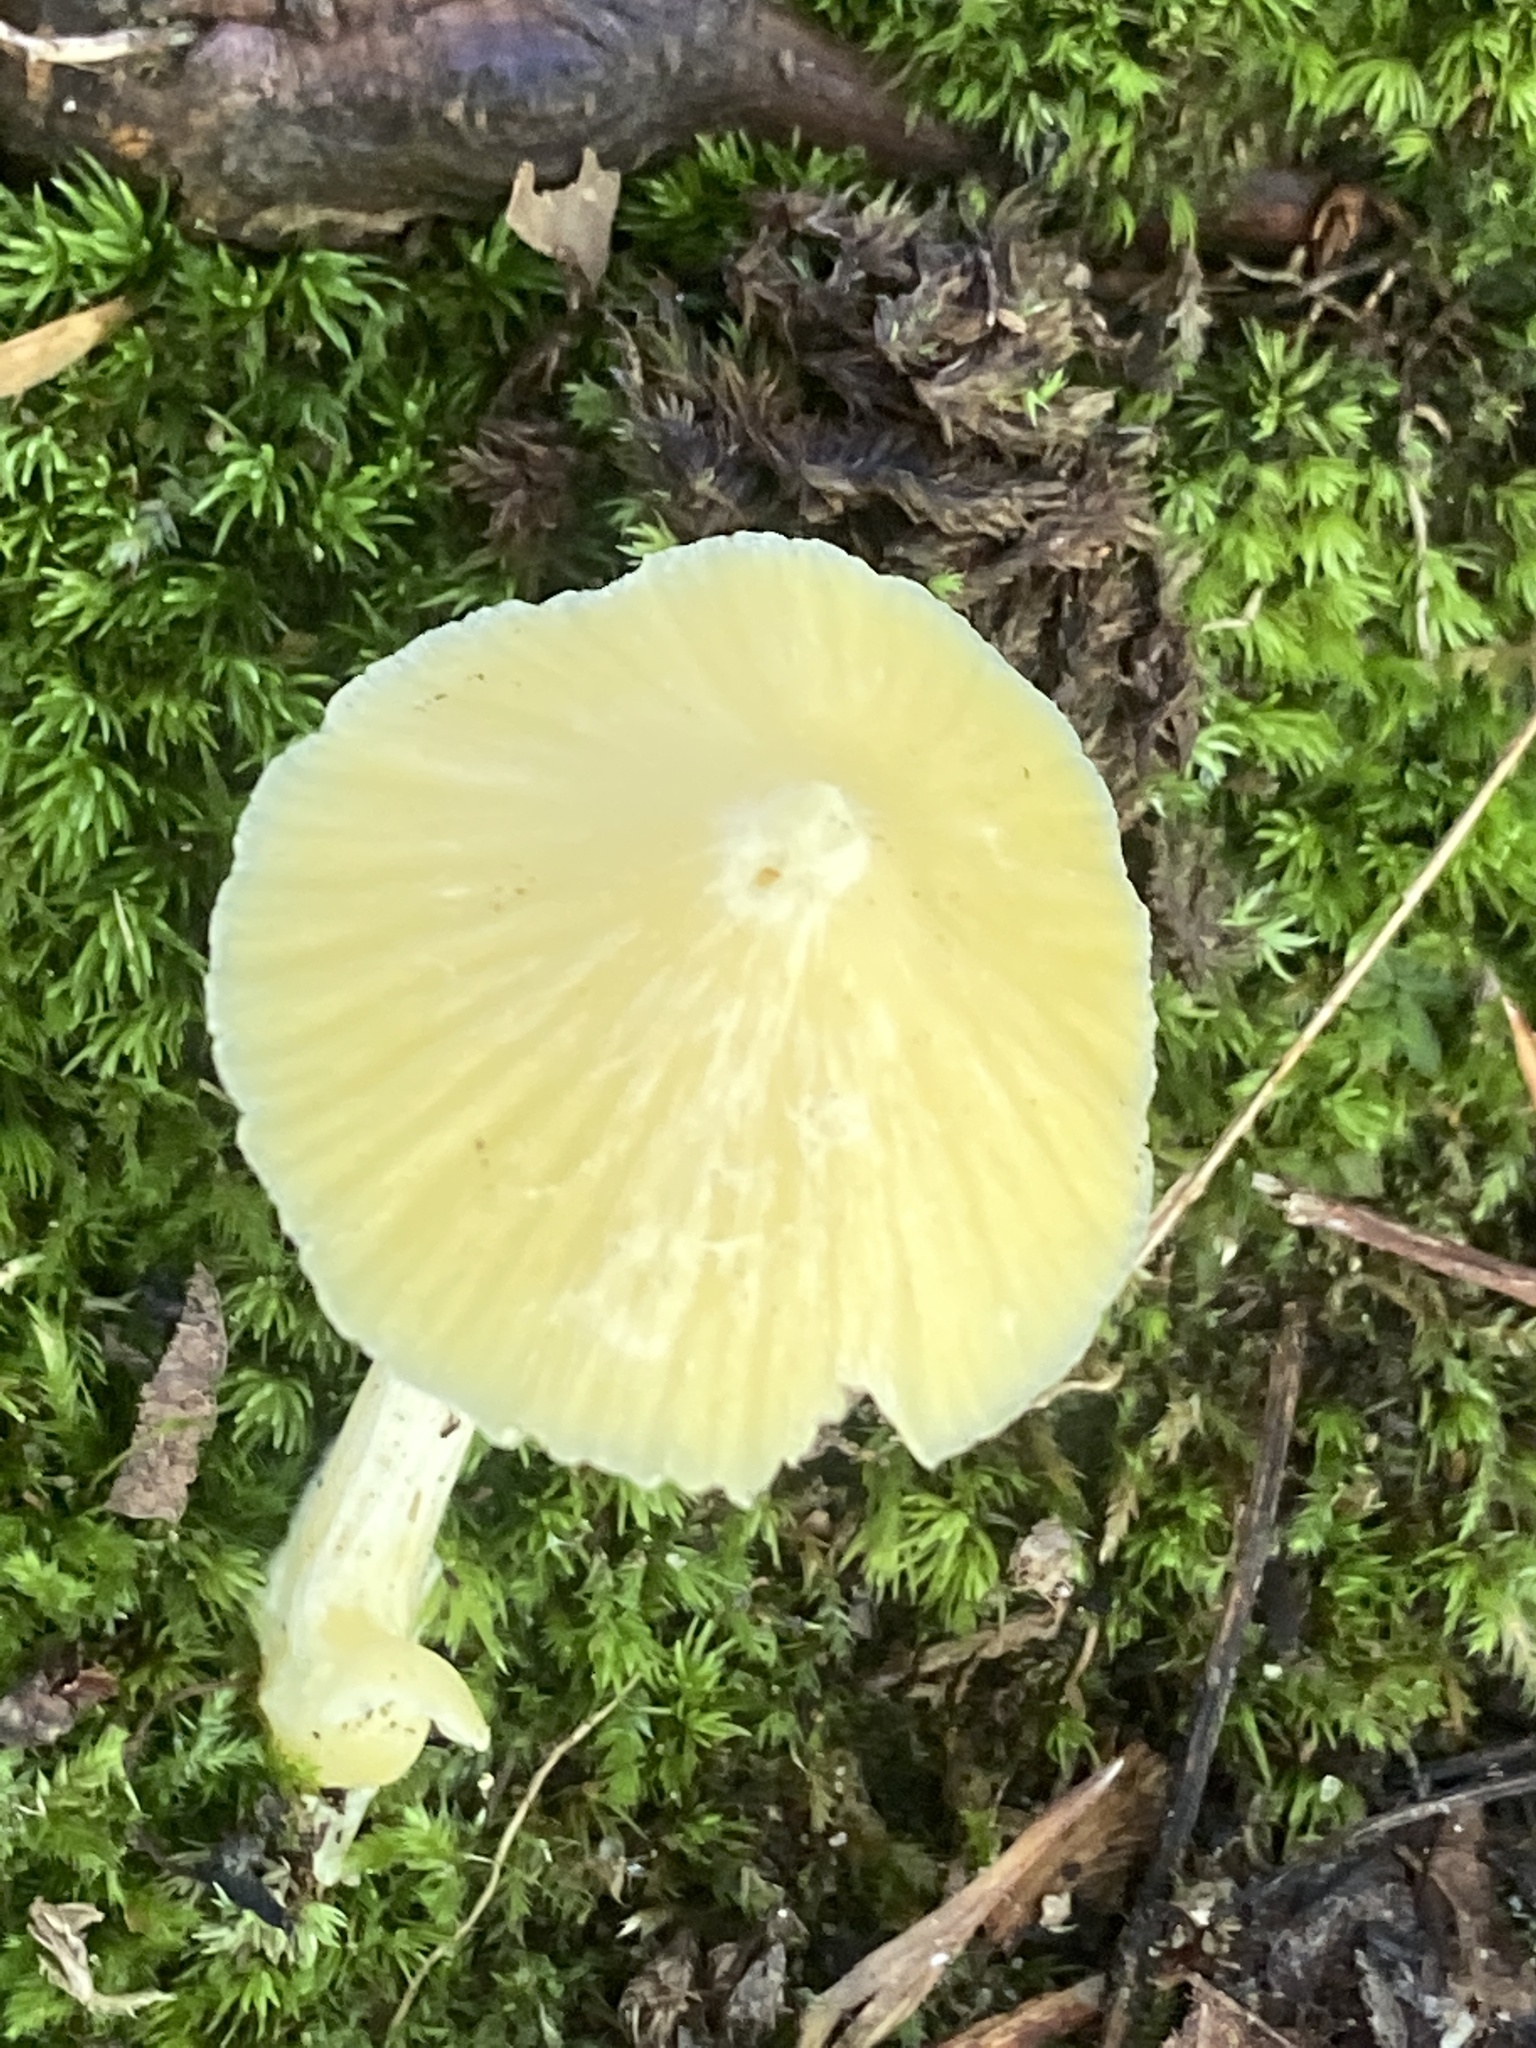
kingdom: Fungi
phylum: Basidiomycota
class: Agaricomycetes
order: Agaricales
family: Entolomataceae
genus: Entoloma
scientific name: Entoloma murrayi
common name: Yellow unicorn entoloma
